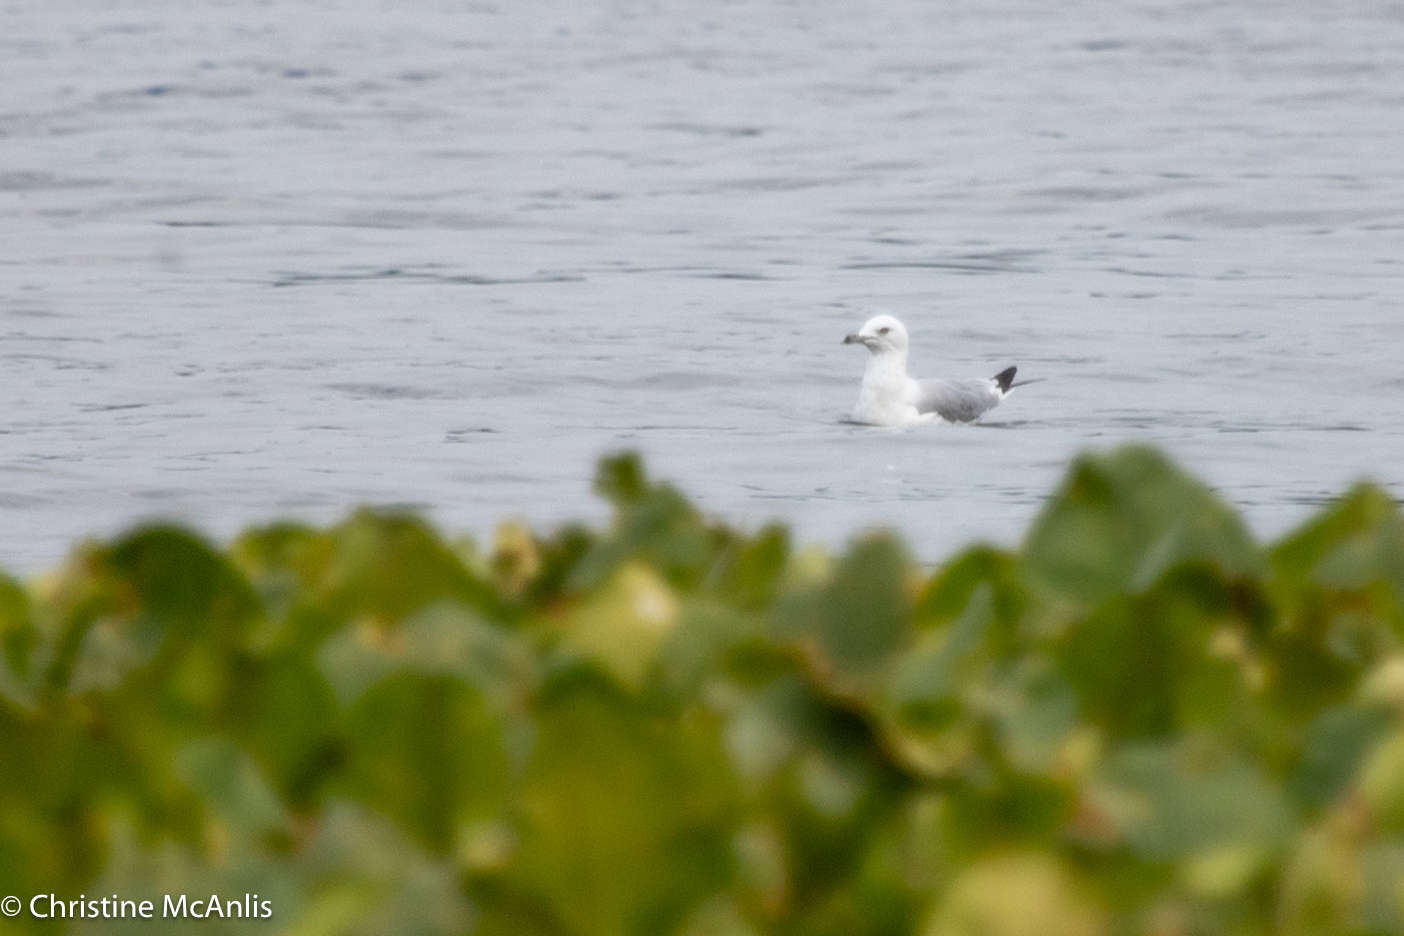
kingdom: Animalia
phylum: Chordata
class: Aves
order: Charadriiformes
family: Laridae
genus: Larus
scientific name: Larus delawarensis
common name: Ring-billed gull
